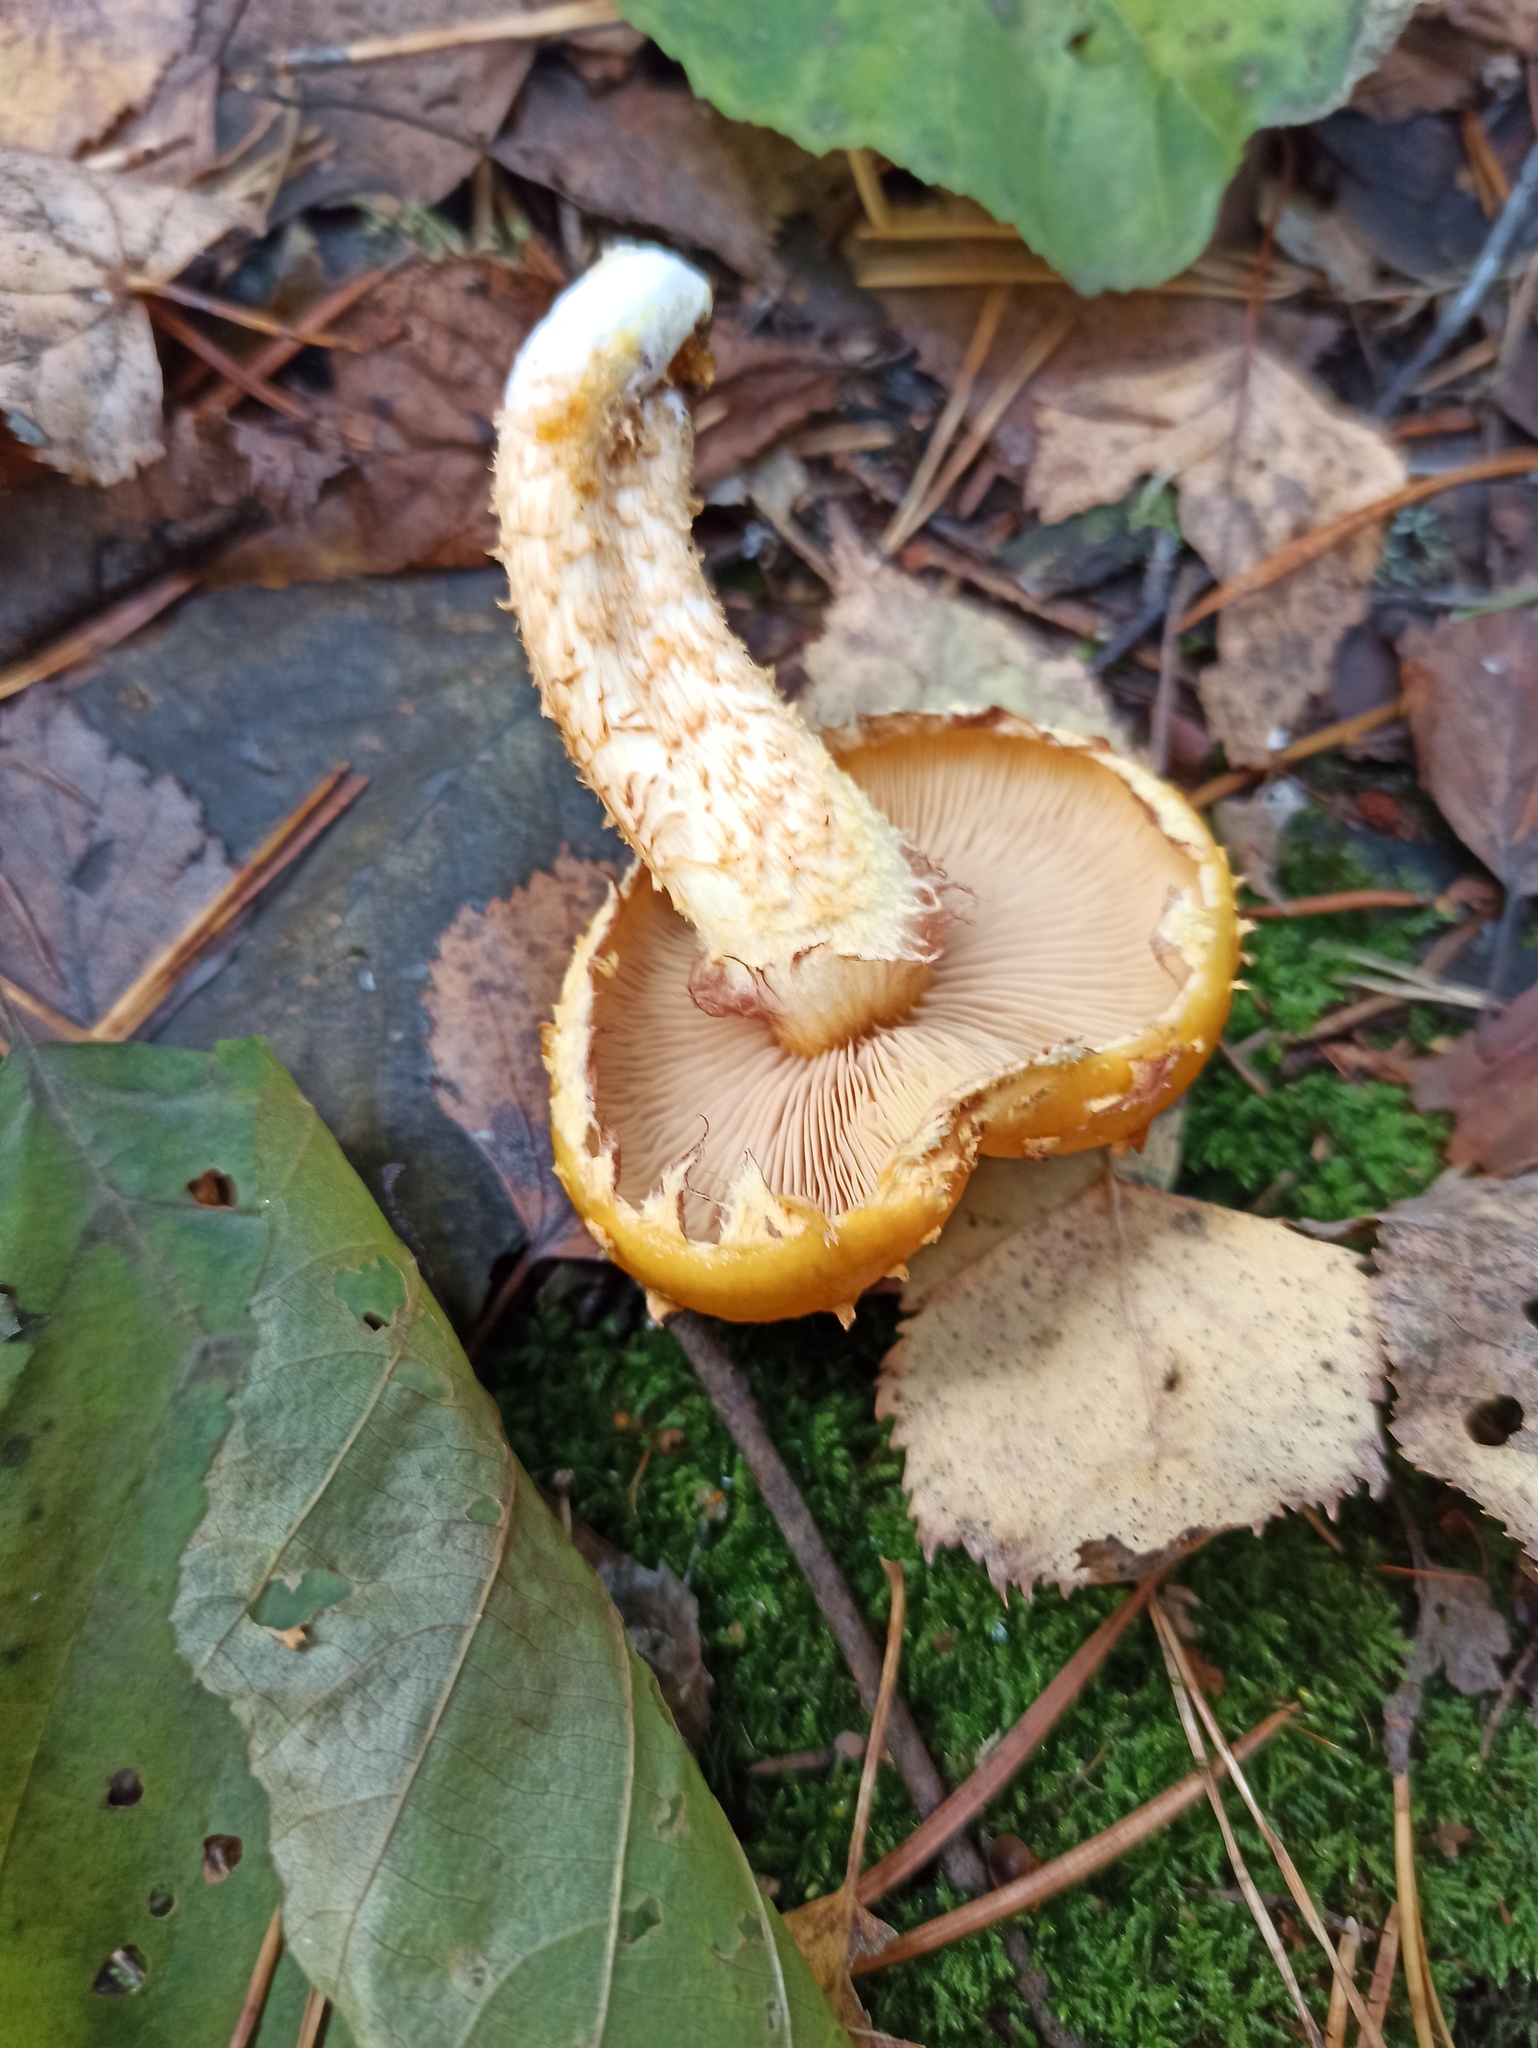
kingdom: Fungi
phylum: Basidiomycota
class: Agaricomycetes
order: Agaricales
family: Strophariaceae
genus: Pholiota
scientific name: Pholiota aurivella
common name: Golden scalycap
